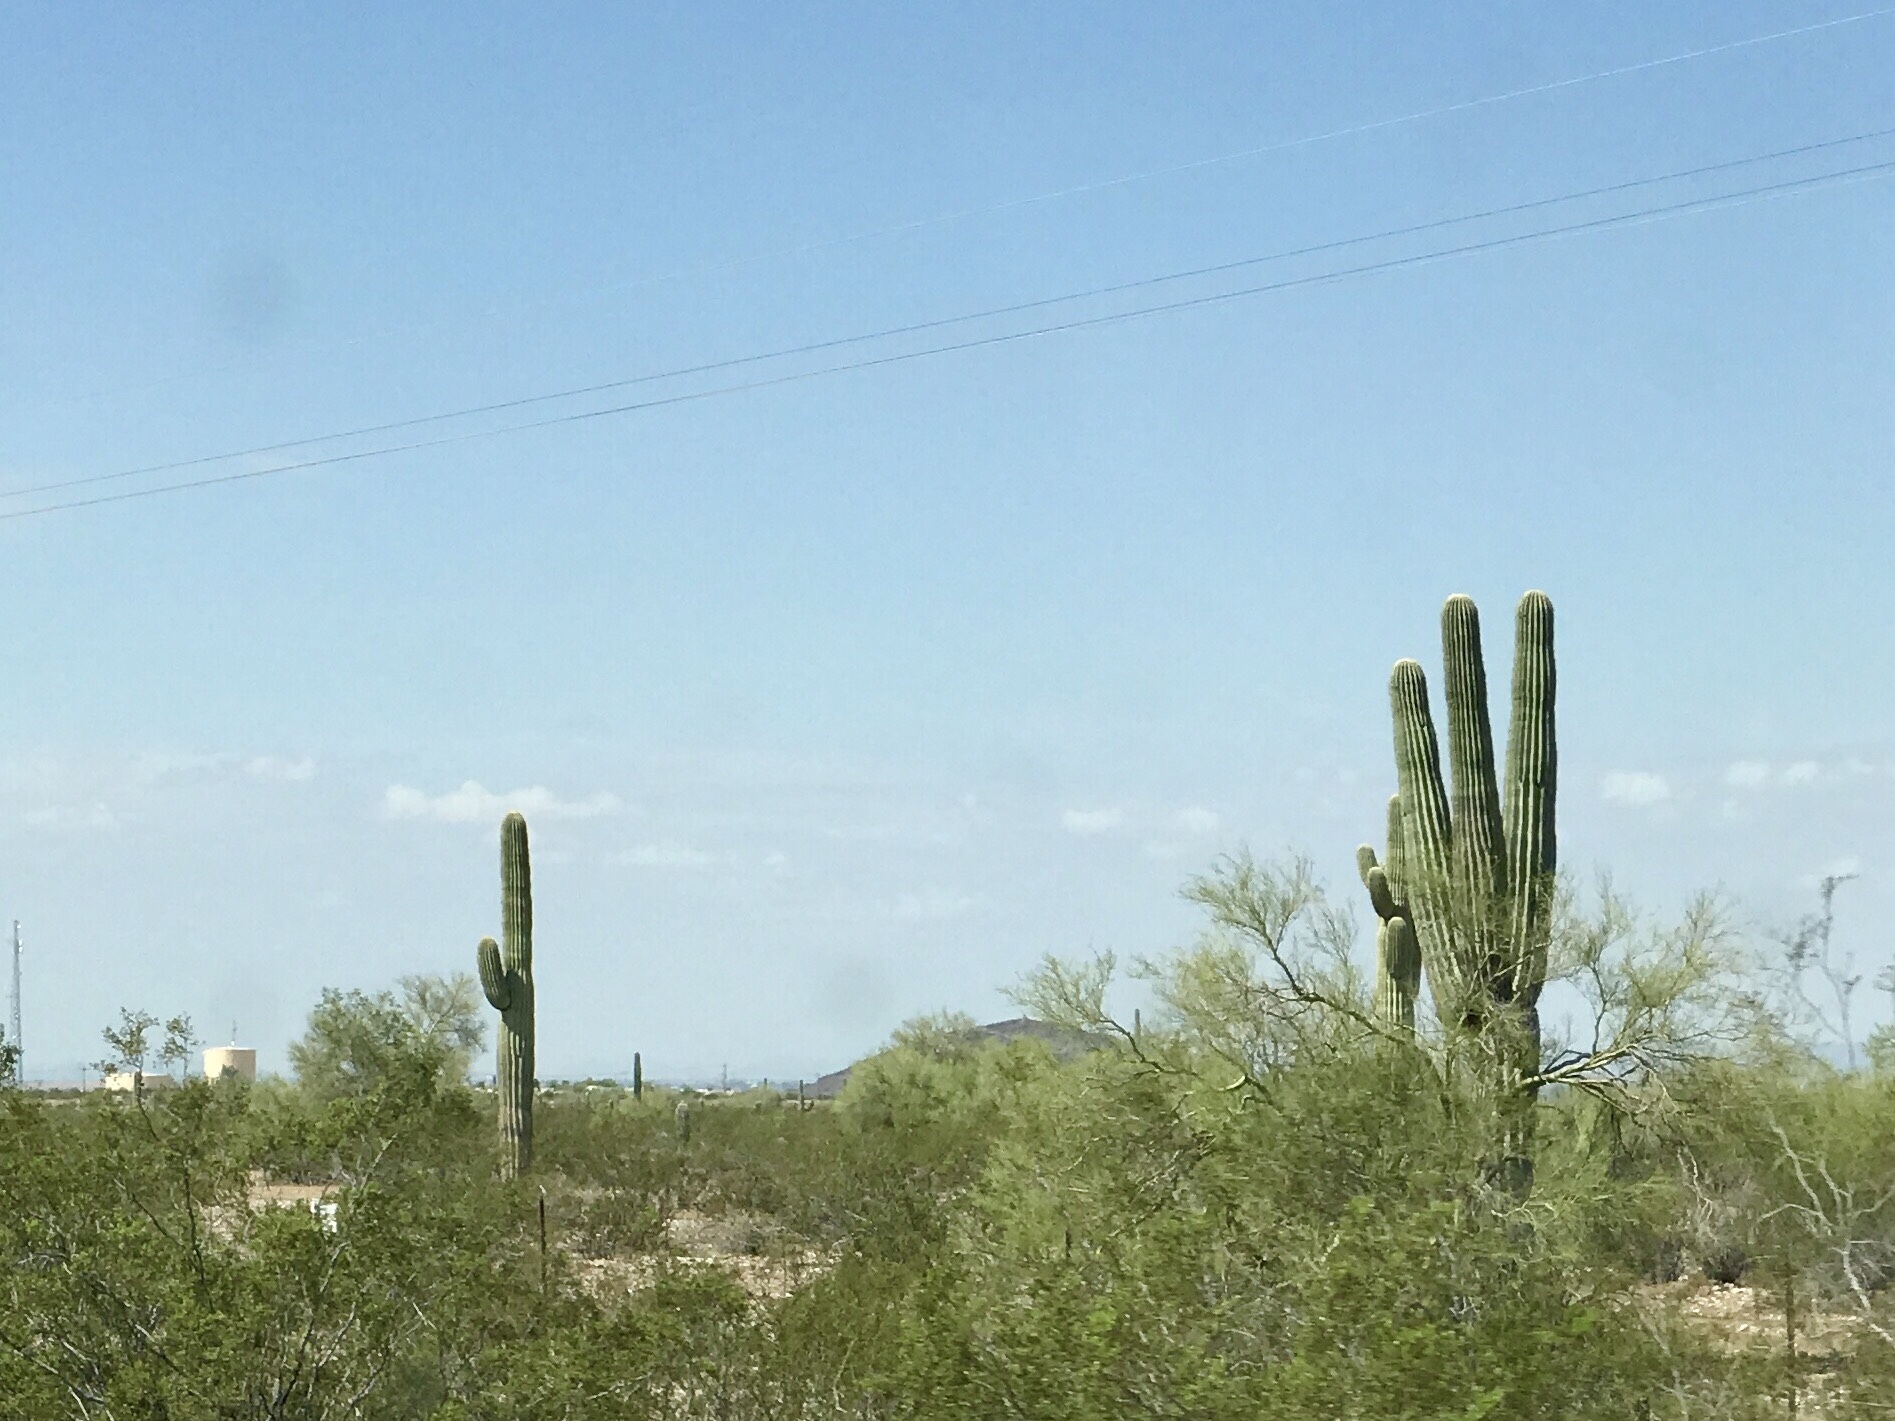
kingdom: Plantae
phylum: Tracheophyta
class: Magnoliopsida
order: Caryophyllales
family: Cactaceae
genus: Carnegiea
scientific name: Carnegiea gigantea
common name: Saguaro
